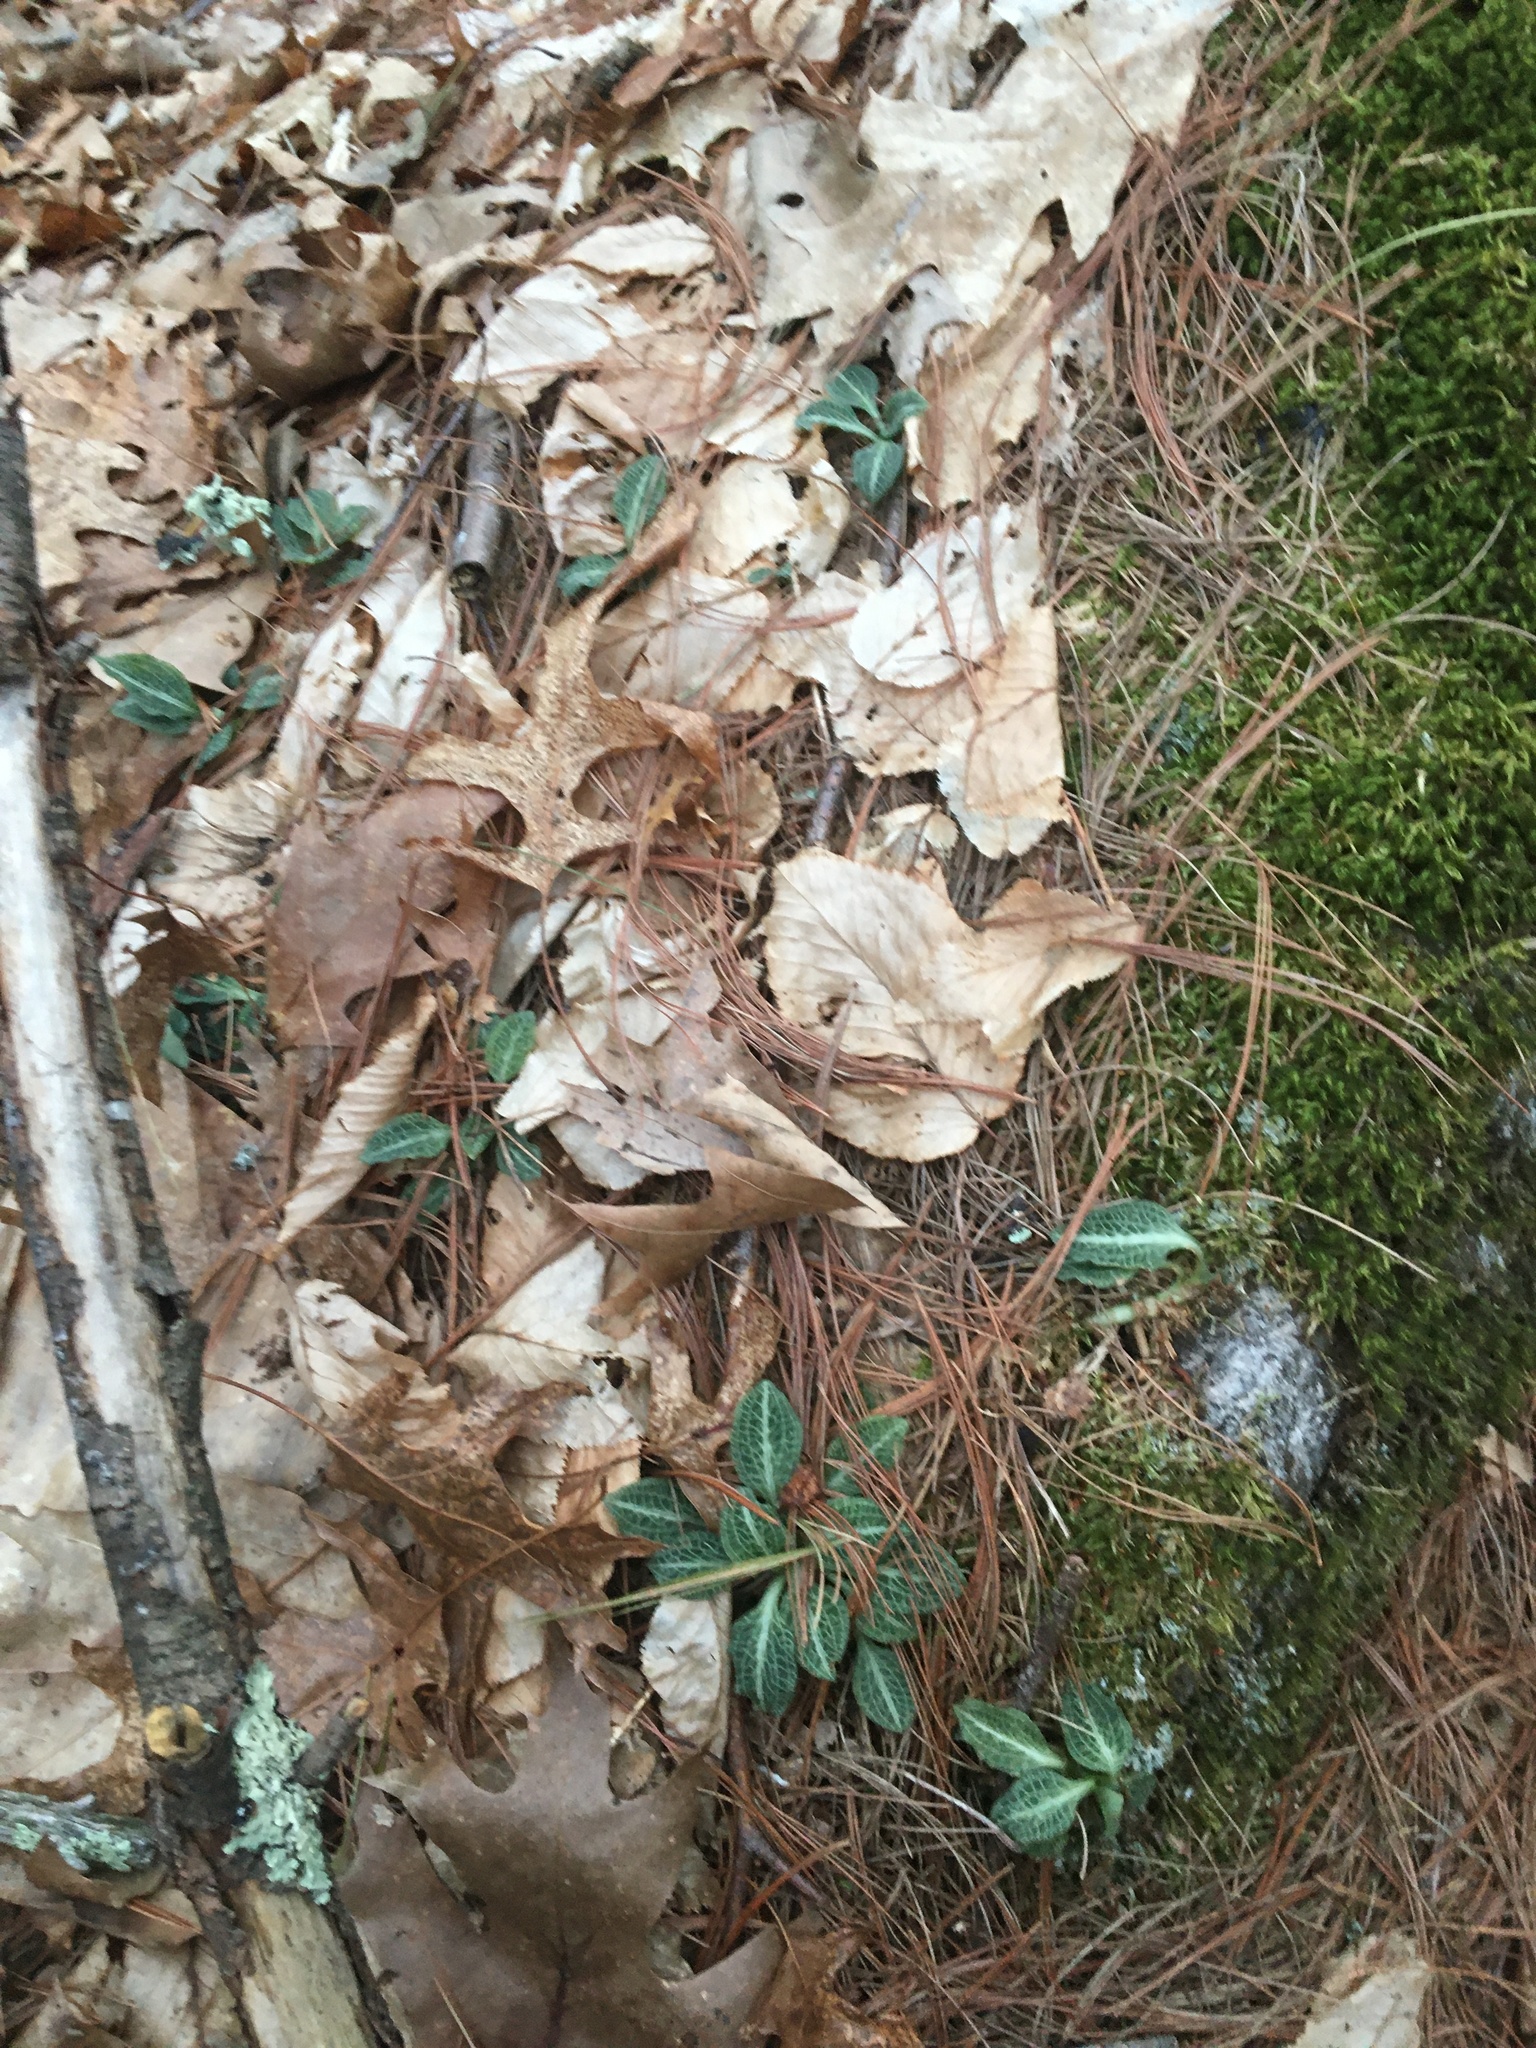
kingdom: Plantae
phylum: Tracheophyta
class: Liliopsida
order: Asparagales
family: Orchidaceae
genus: Goodyera
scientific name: Goodyera pubescens
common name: Downy rattlesnake-plantain
